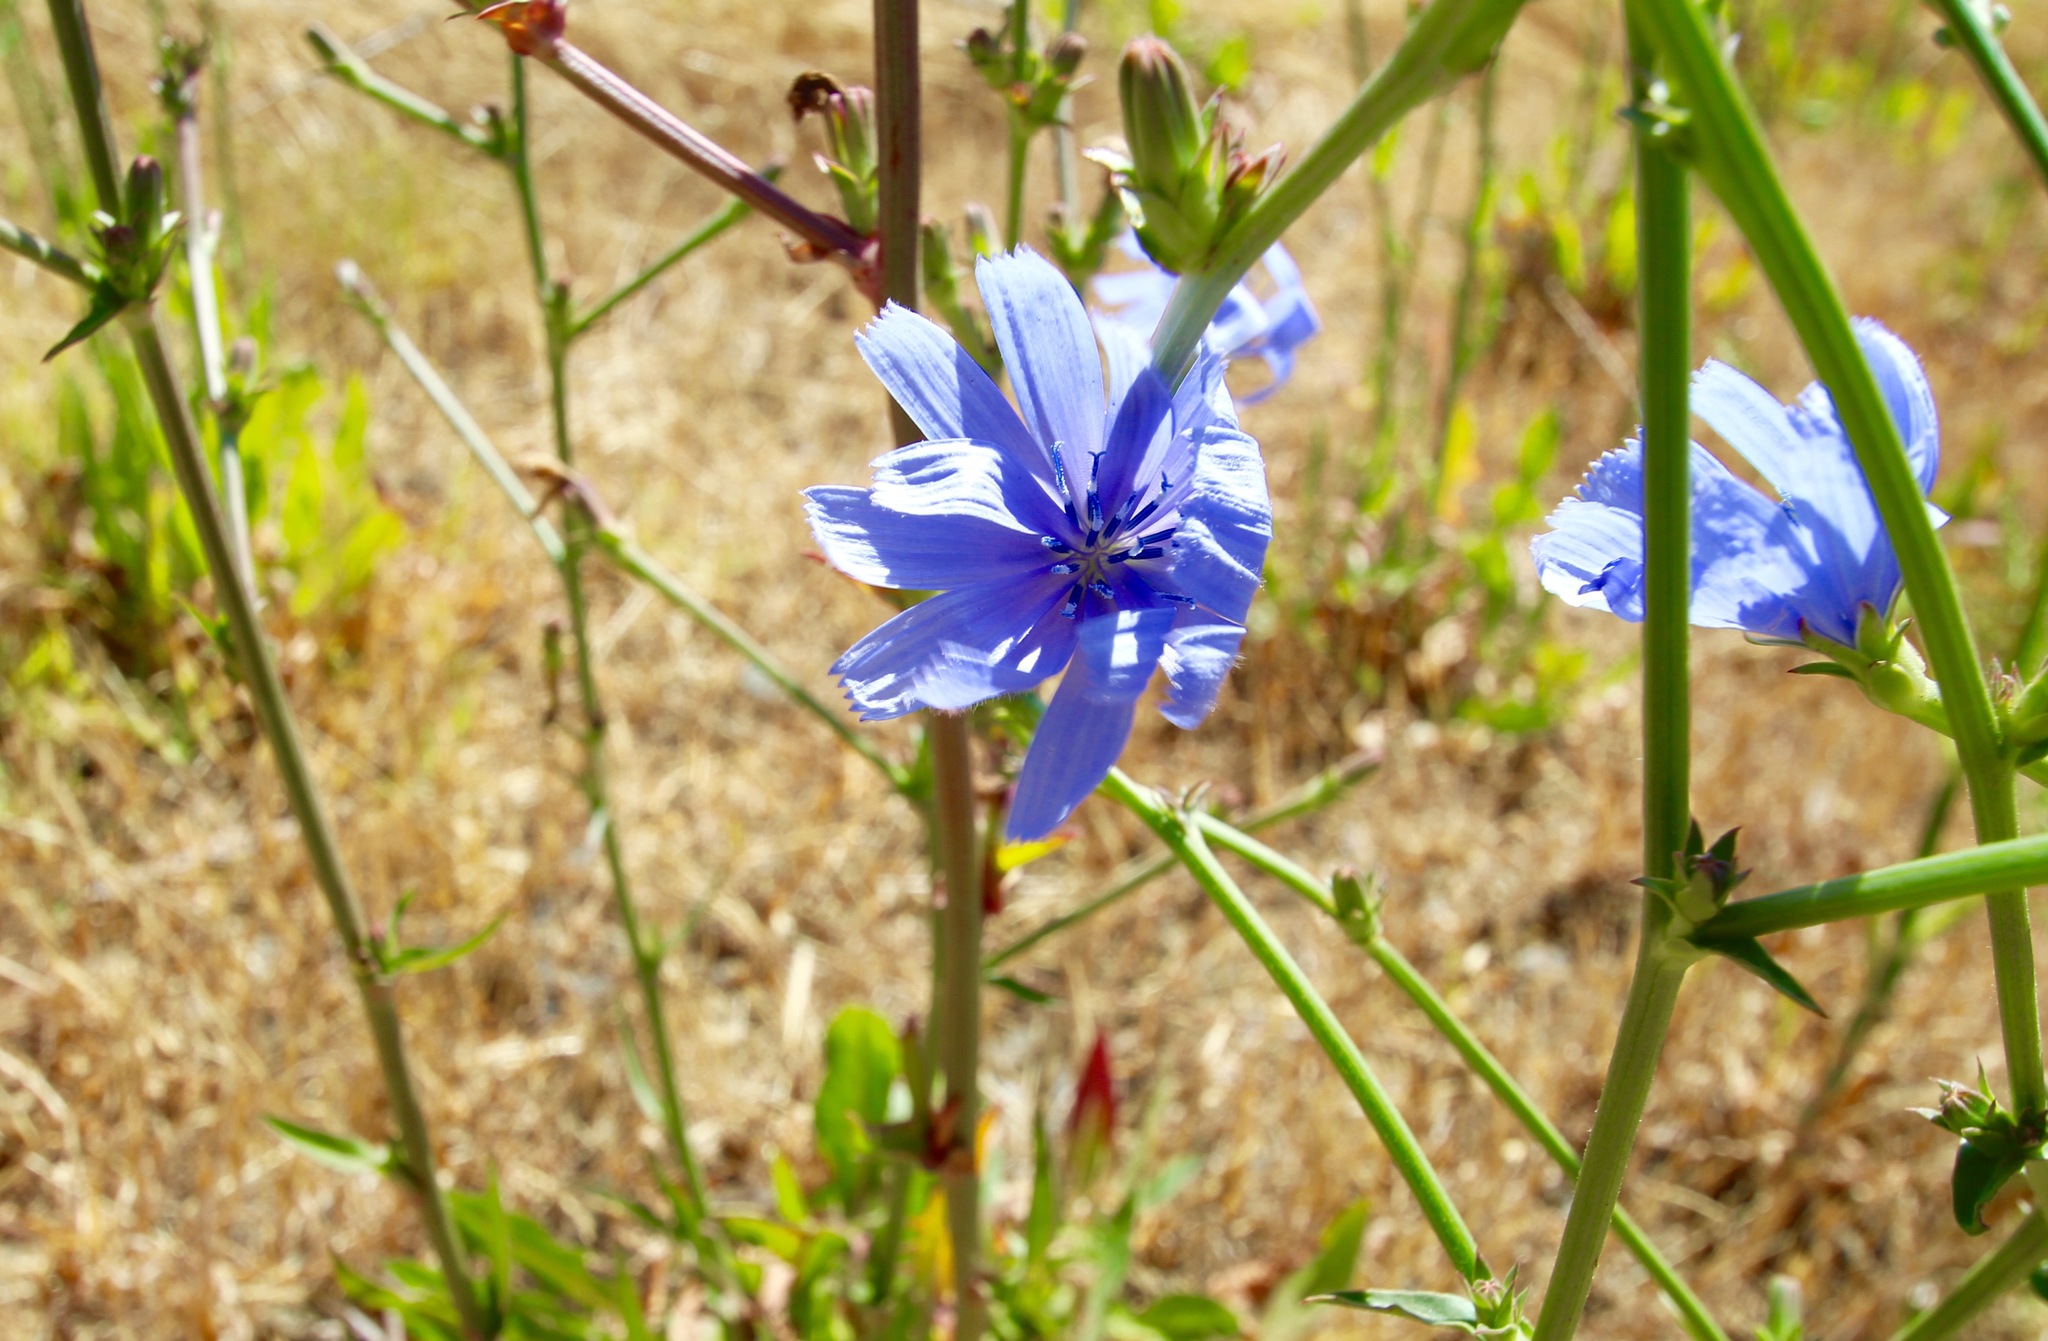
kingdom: Plantae
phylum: Tracheophyta
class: Magnoliopsida
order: Asterales
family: Asteraceae
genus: Cichorium
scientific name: Cichorium intybus
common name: Chicory
